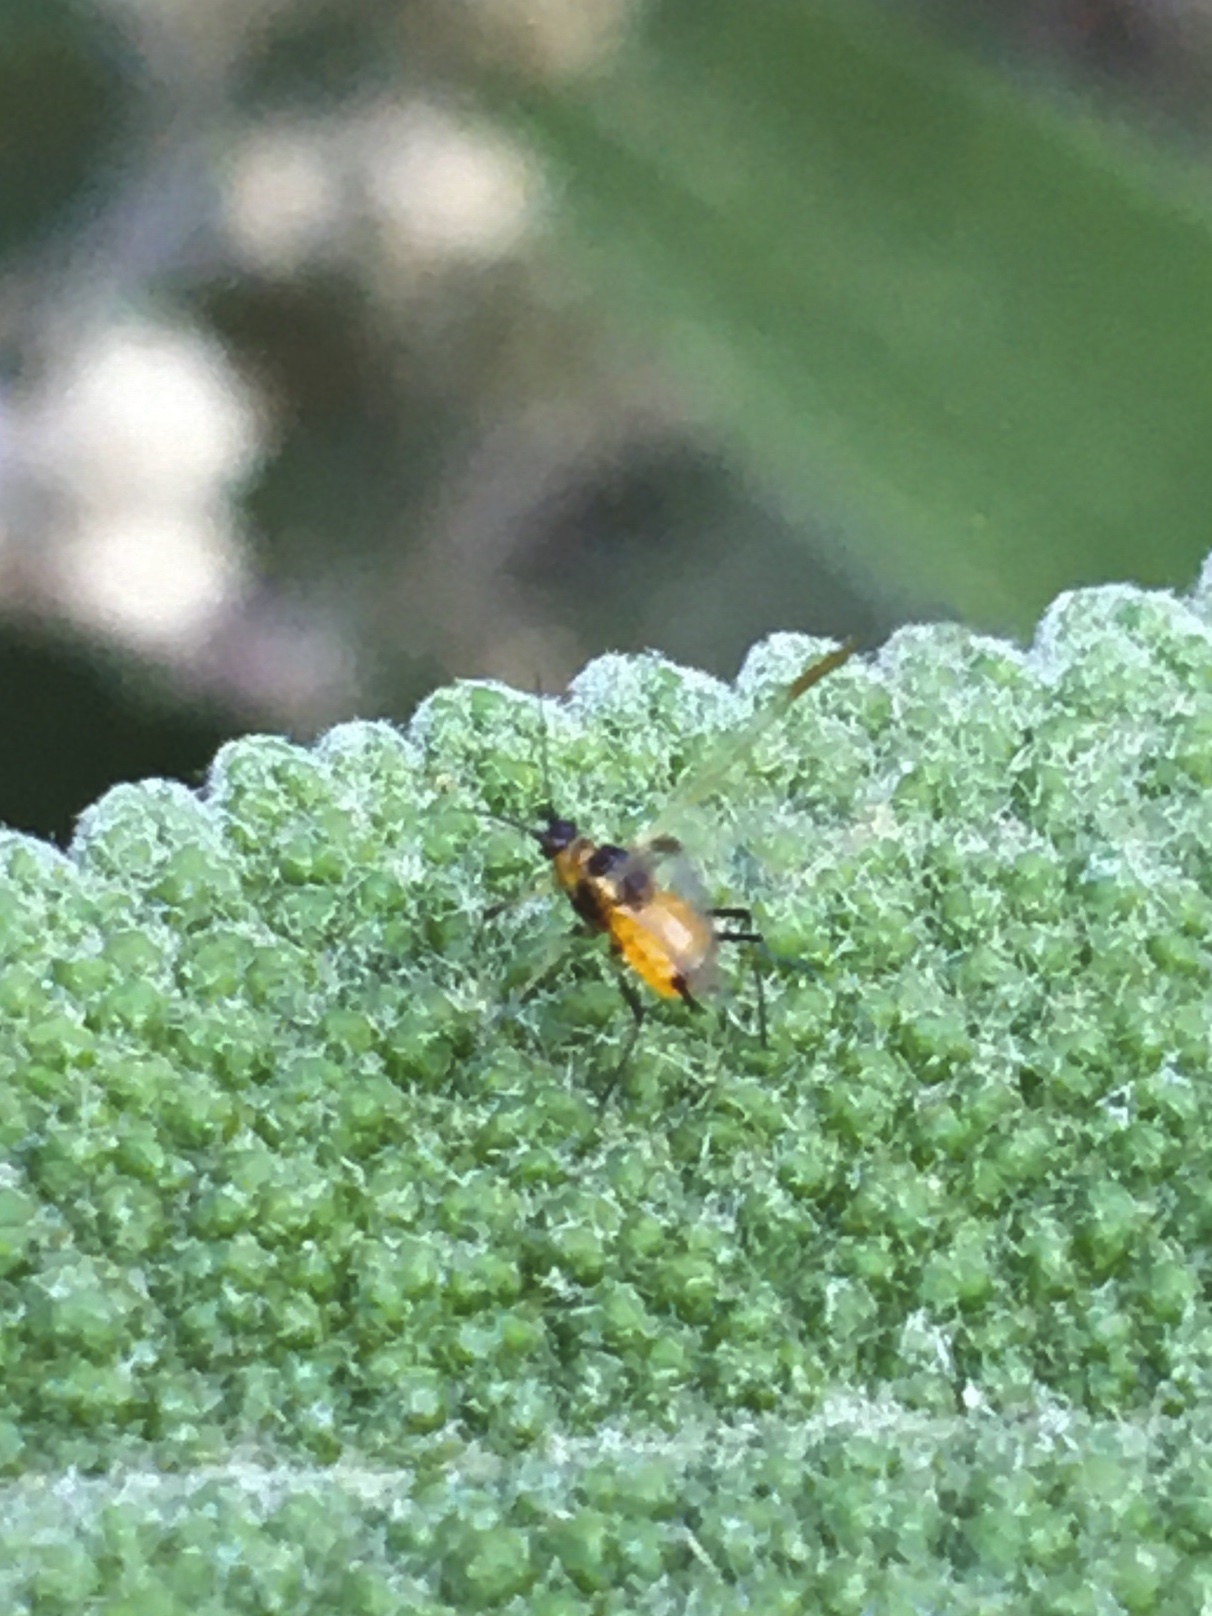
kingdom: Animalia
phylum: Arthropoda
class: Insecta
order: Hemiptera
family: Aphididae
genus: Aphis
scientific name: Aphis nerii
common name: Oleander aphid
